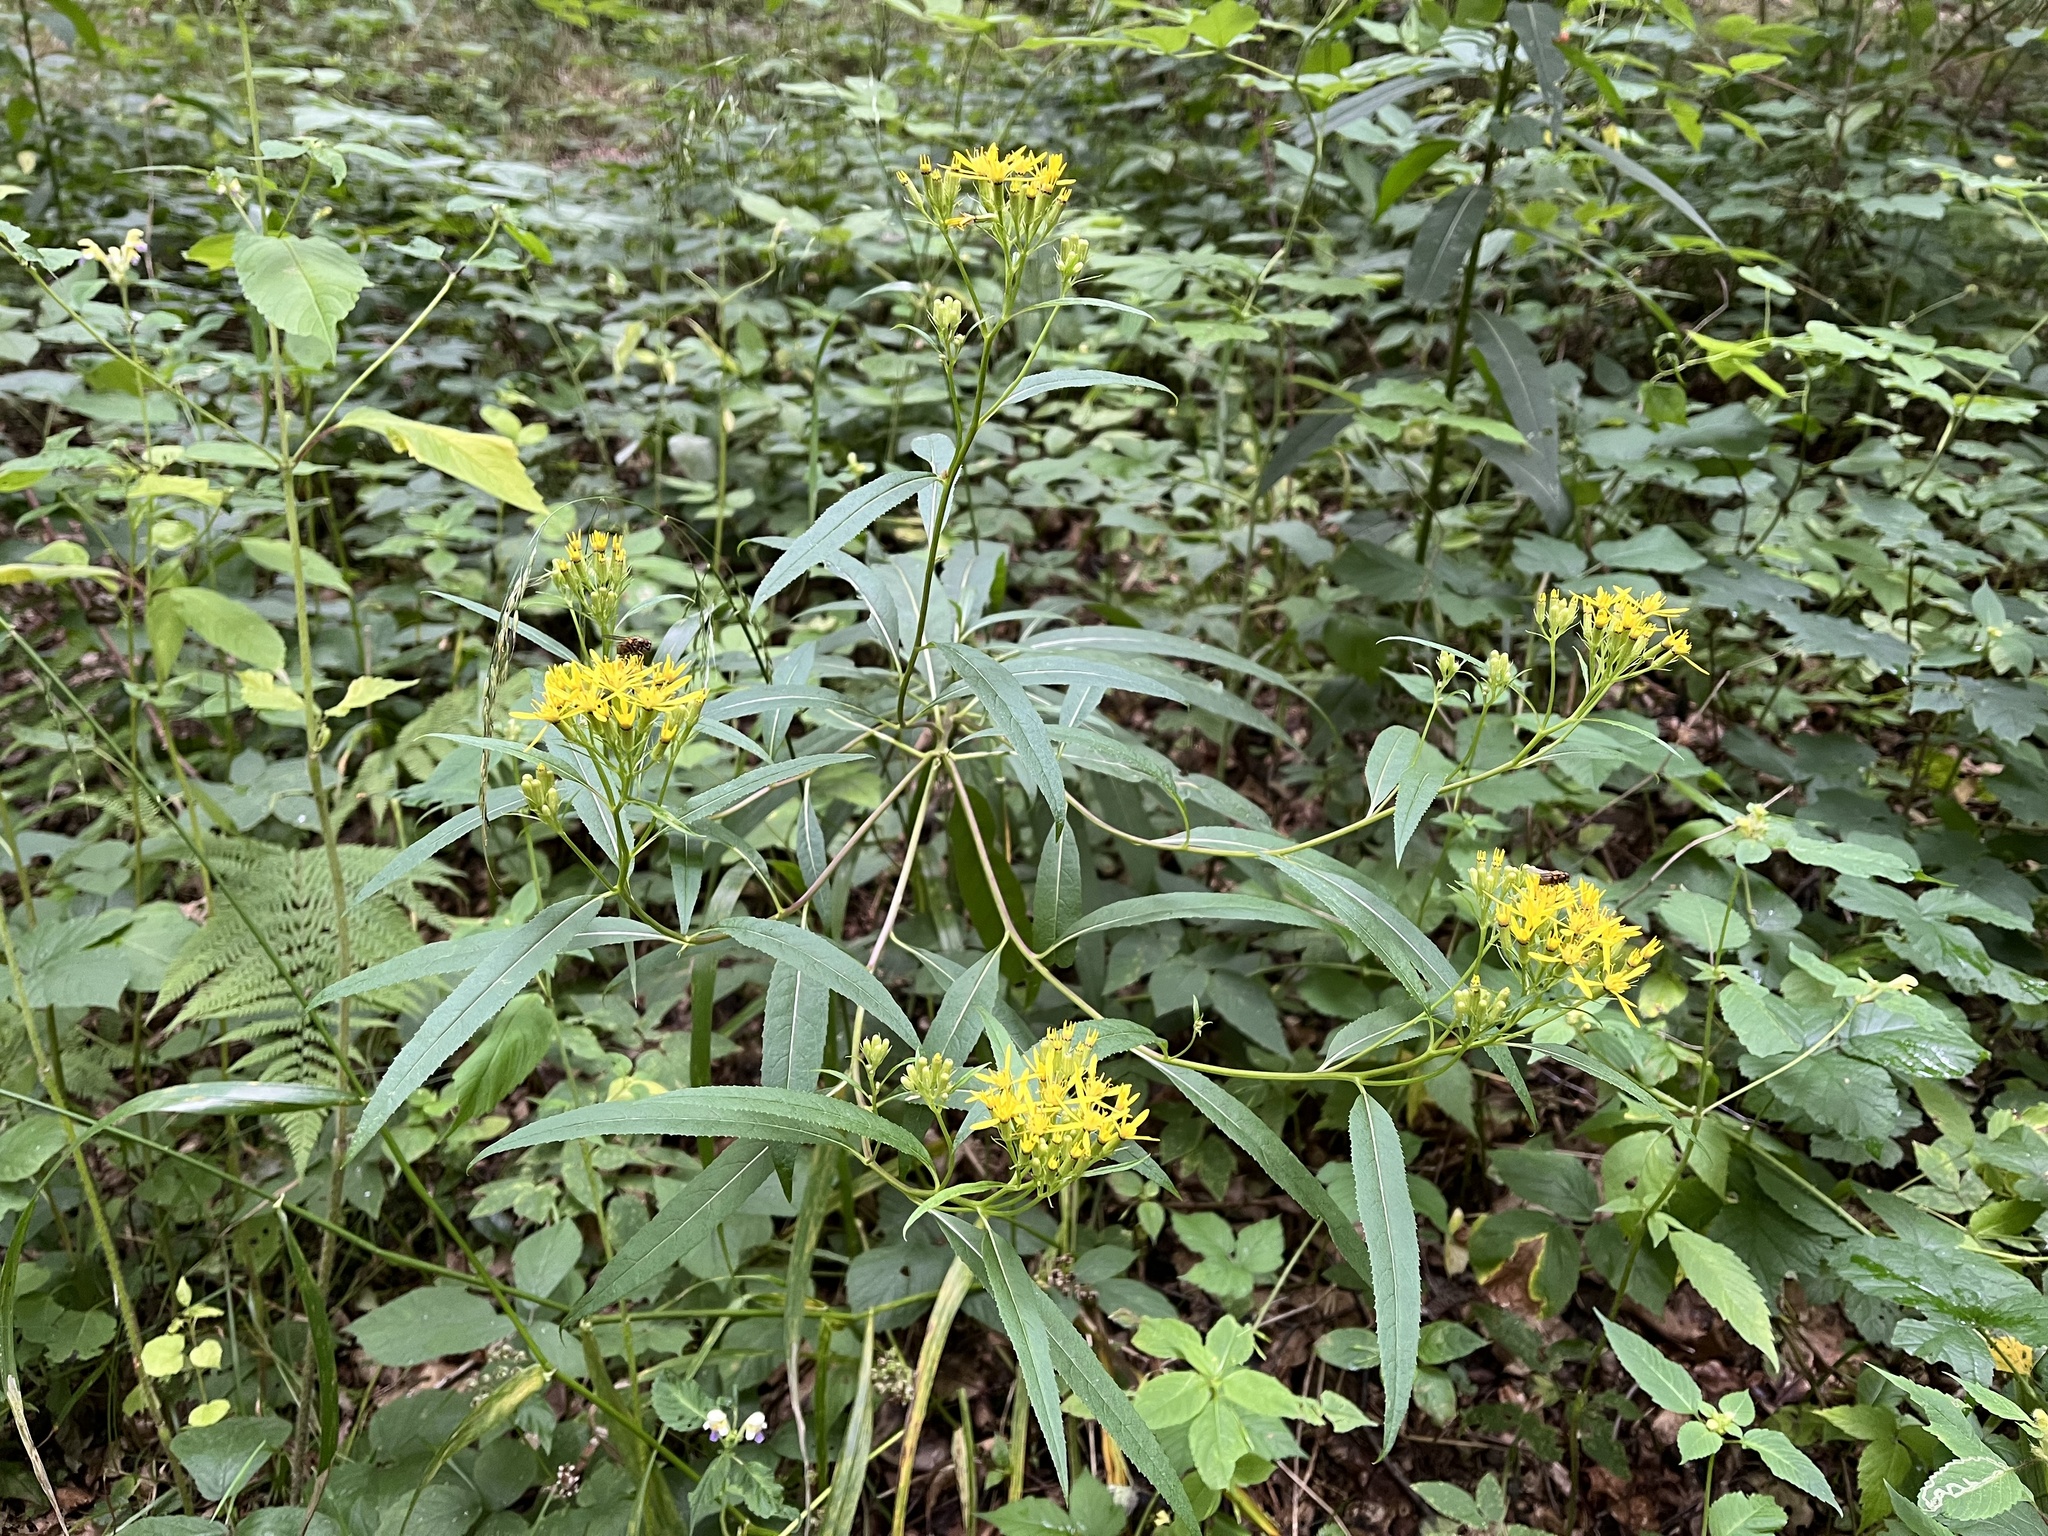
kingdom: Plantae
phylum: Tracheophyta
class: Magnoliopsida
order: Asterales
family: Asteraceae
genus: Senecio
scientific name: Senecio ovatus
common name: Wood ragwort
